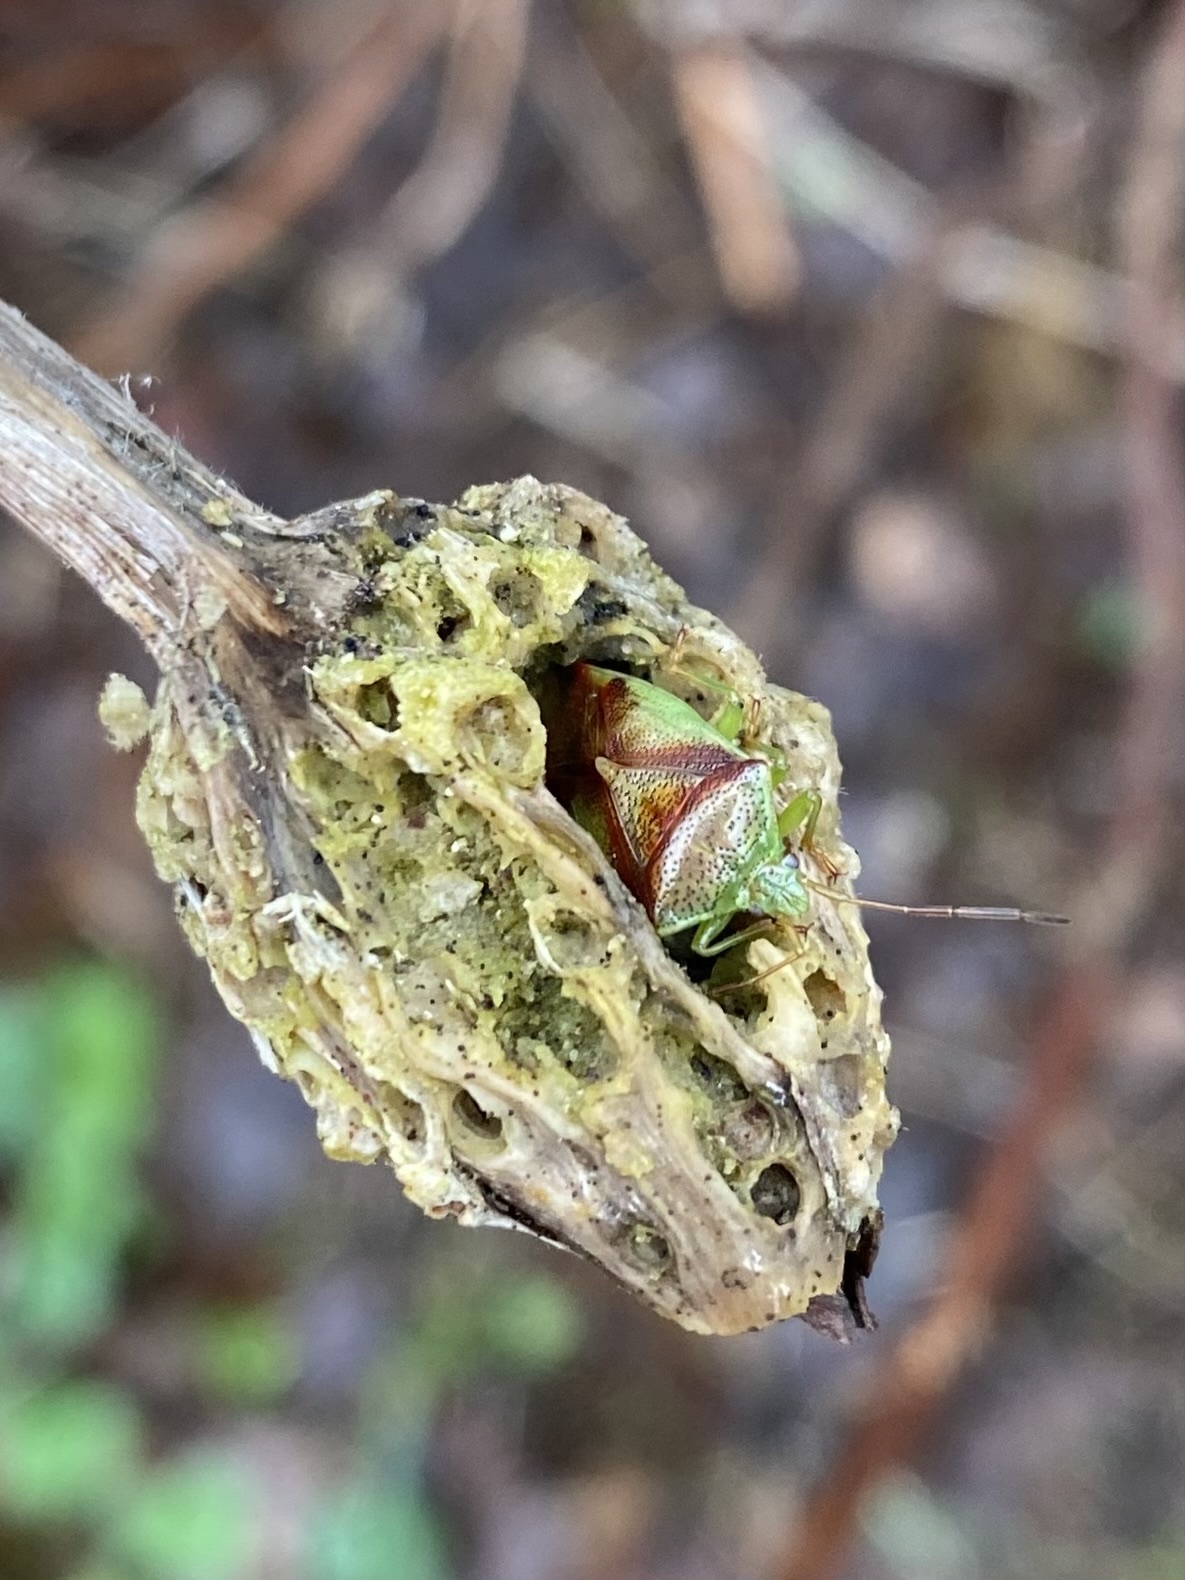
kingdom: Animalia
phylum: Arthropoda
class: Insecta
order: Hemiptera
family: Acanthosomatidae
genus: Elasmostethus
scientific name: Elasmostethus cruciatus
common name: Red-cross shield bug
